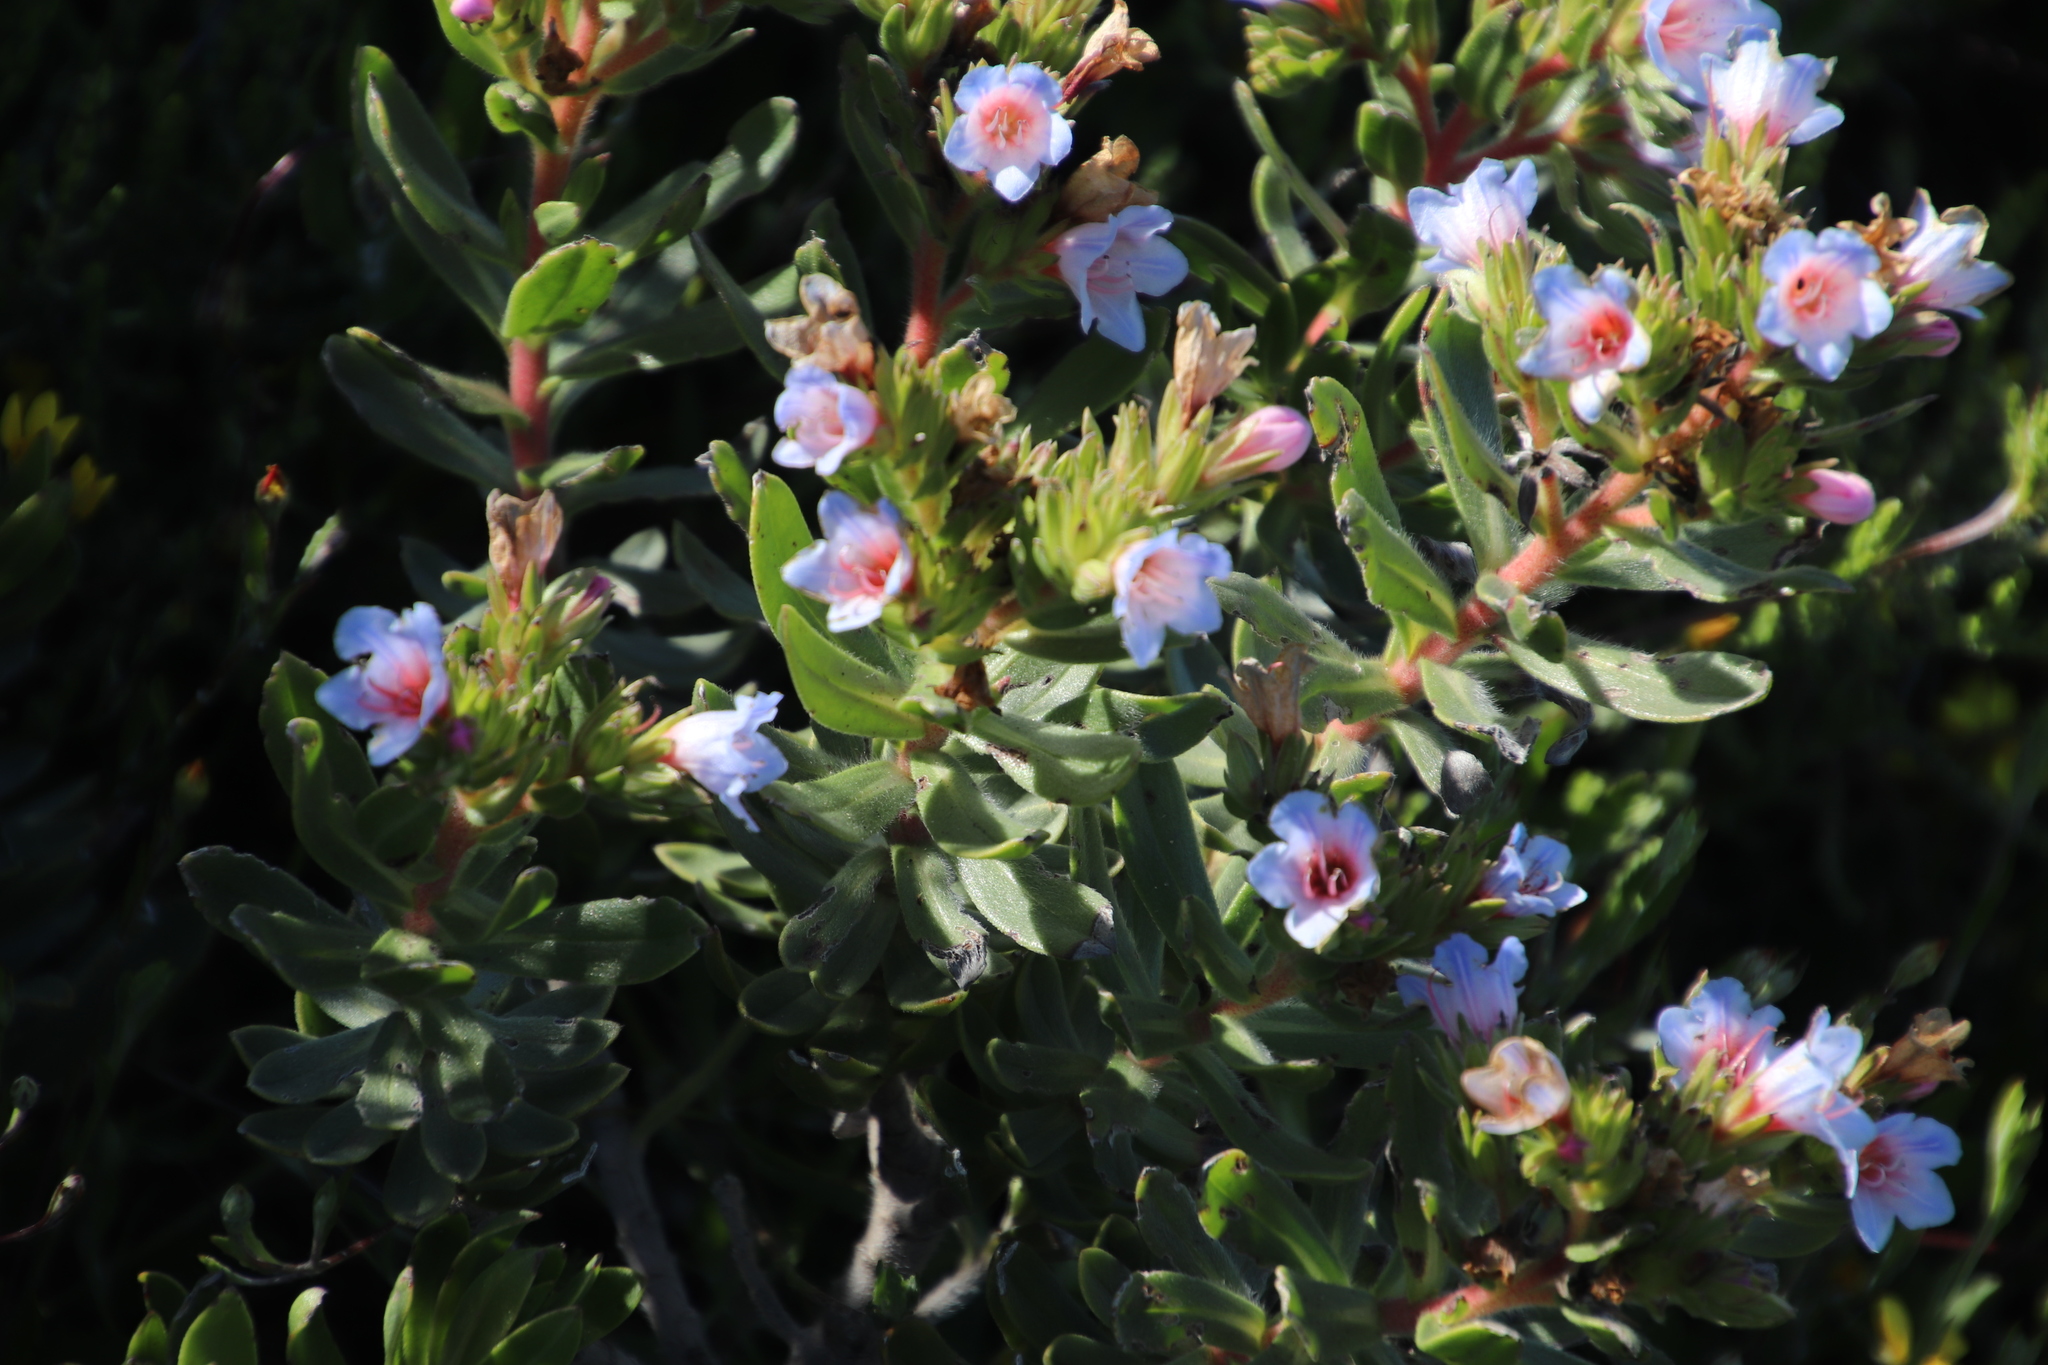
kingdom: Plantae
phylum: Tracheophyta
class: Magnoliopsida
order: Boraginales
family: Boraginaceae
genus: Lobostemon
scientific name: Lobostemon fruticosus
